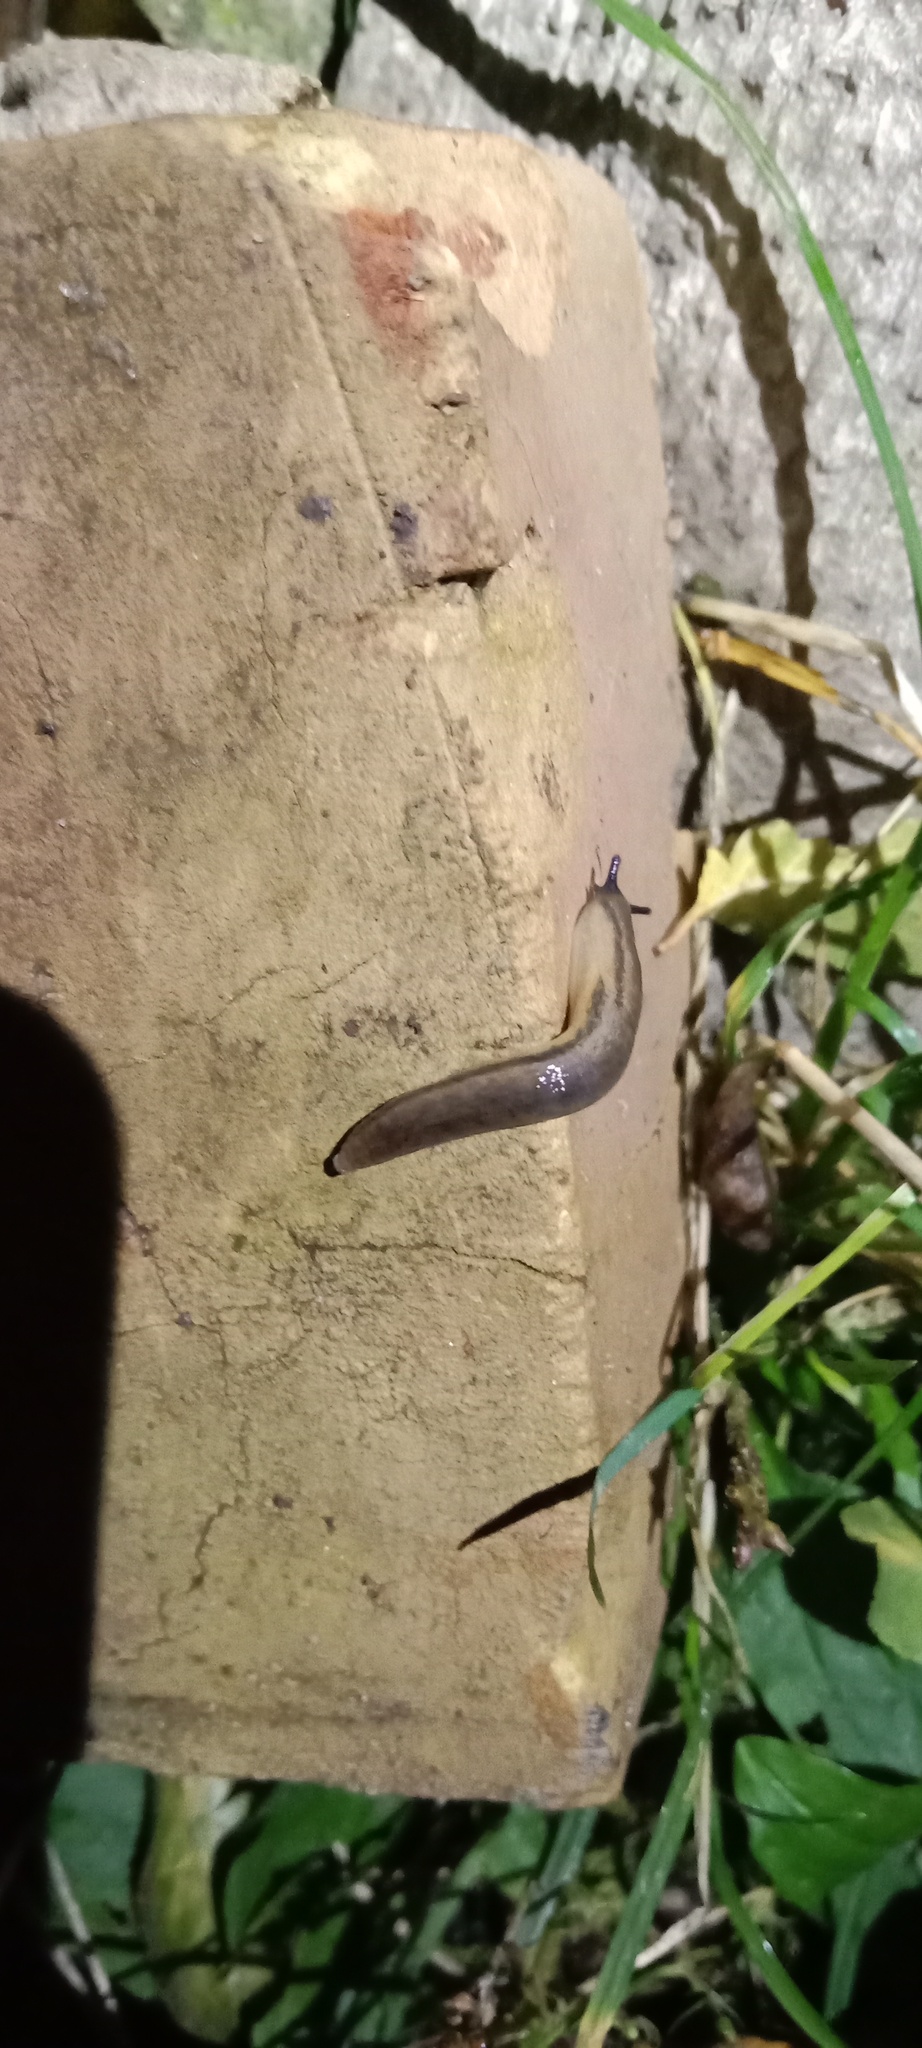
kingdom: Animalia
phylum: Mollusca
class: Gastropoda
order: Stylommatophora
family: Arionidae
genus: Arion
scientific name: Arion fasciatus
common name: Orange-banded arion
